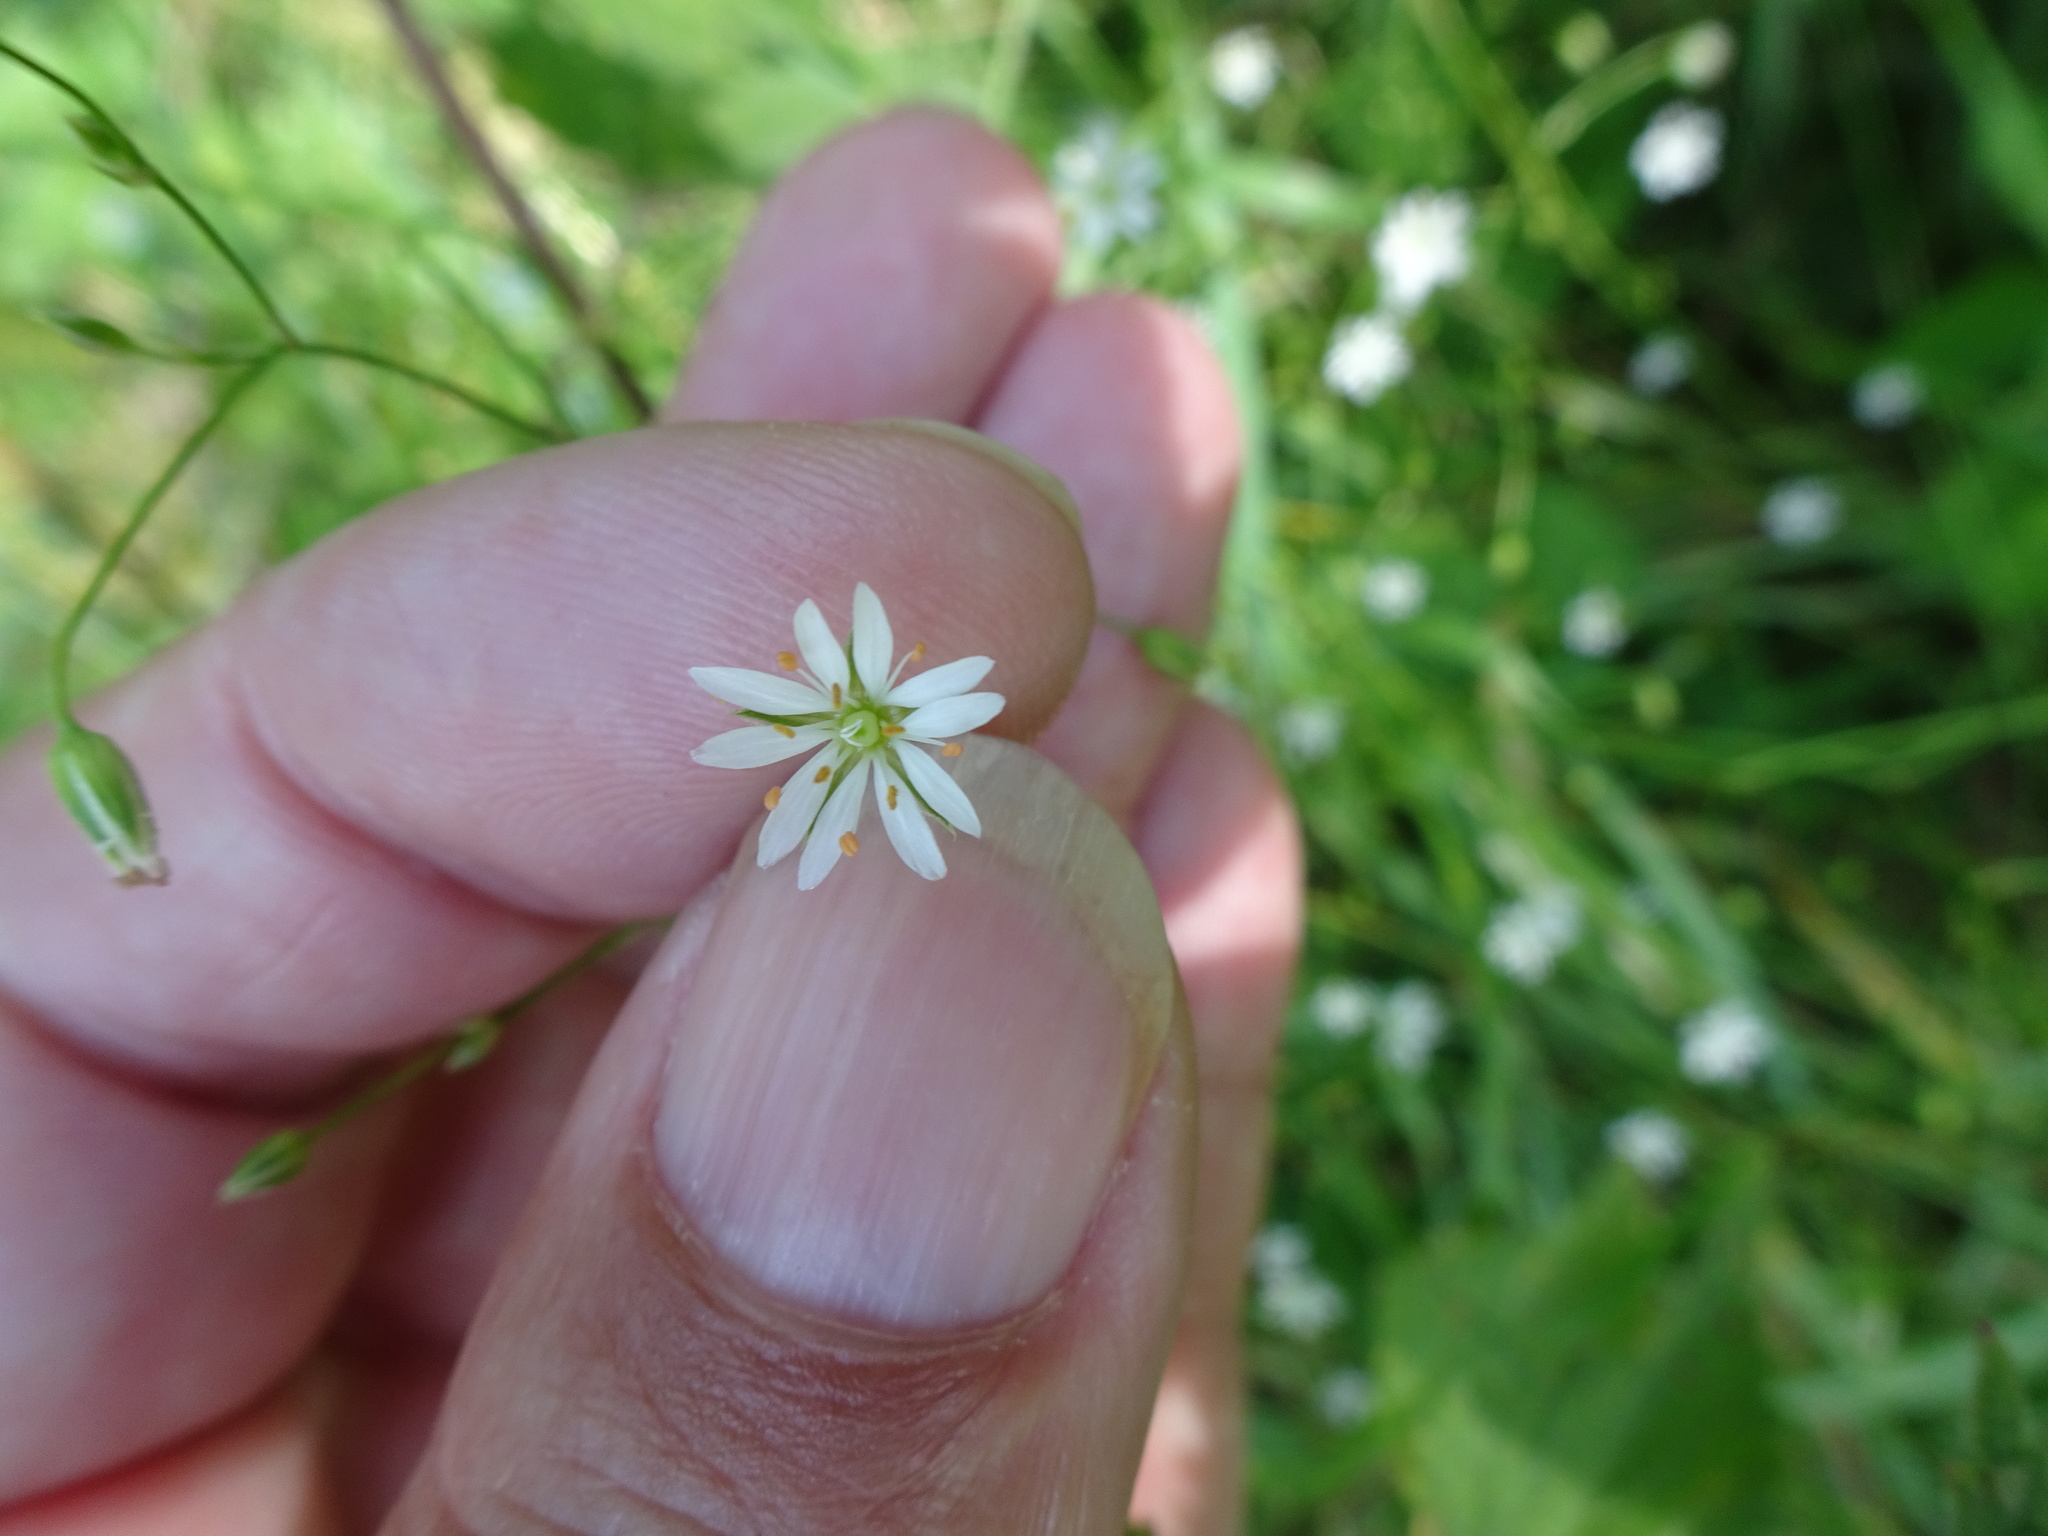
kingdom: Plantae
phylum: Tracheophyta
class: Magnoliopsida
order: Caryophyllales
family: Caryophyllaceae
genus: Stellaria
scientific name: Stellaria graminea
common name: Grass-like starwort
